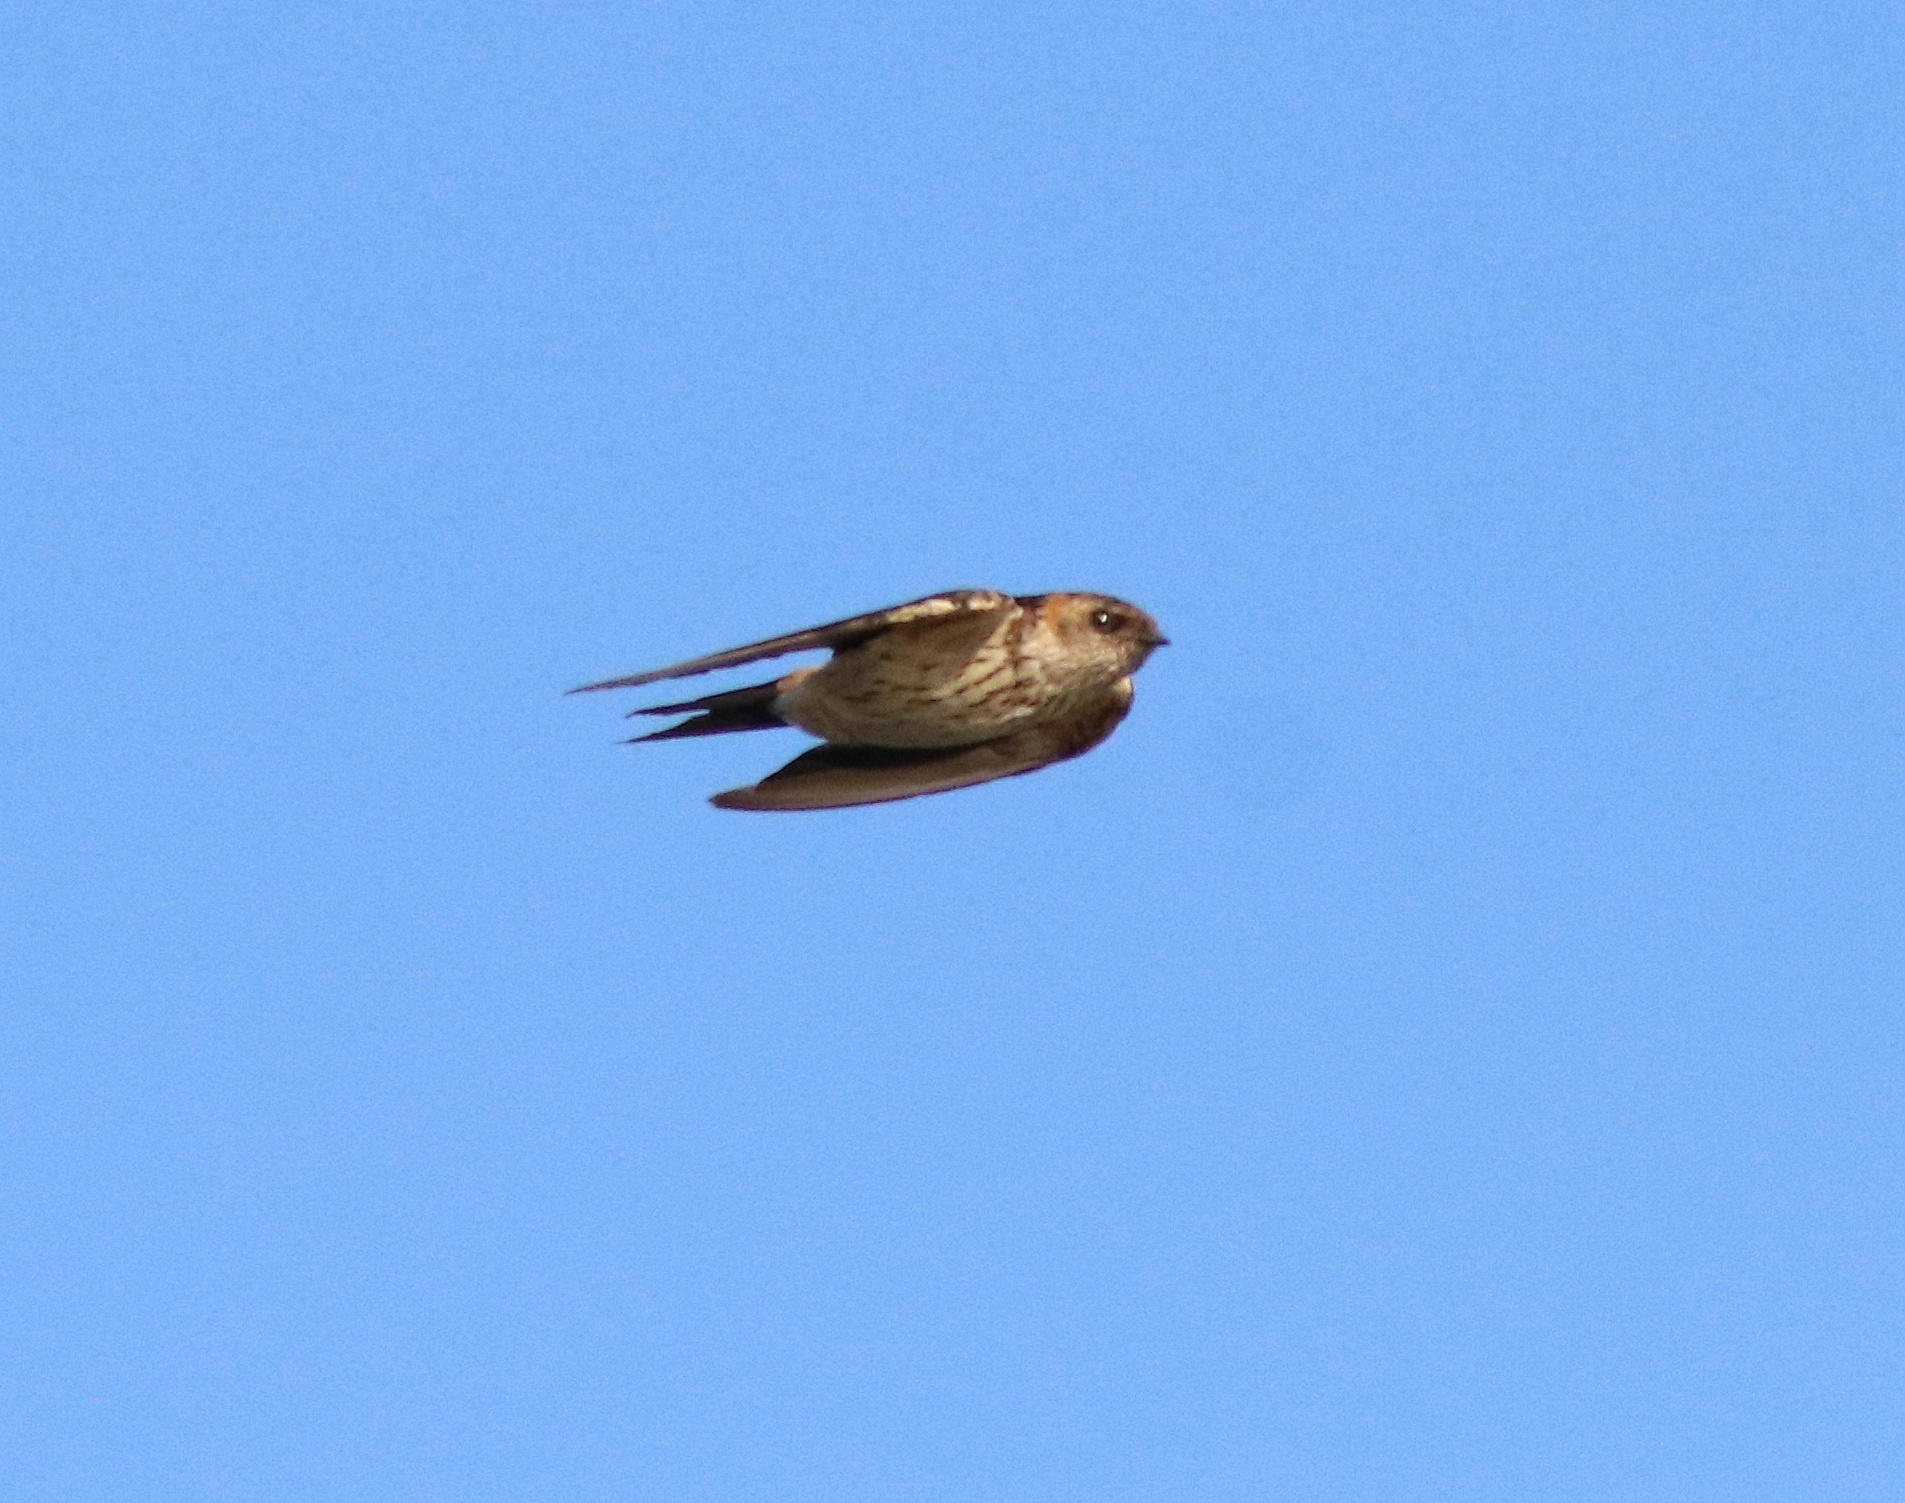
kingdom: Animalia
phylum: Chordata
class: Aves
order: Passeriformes
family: Hirundinidae
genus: Cecropis
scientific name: Cecropis daurica
